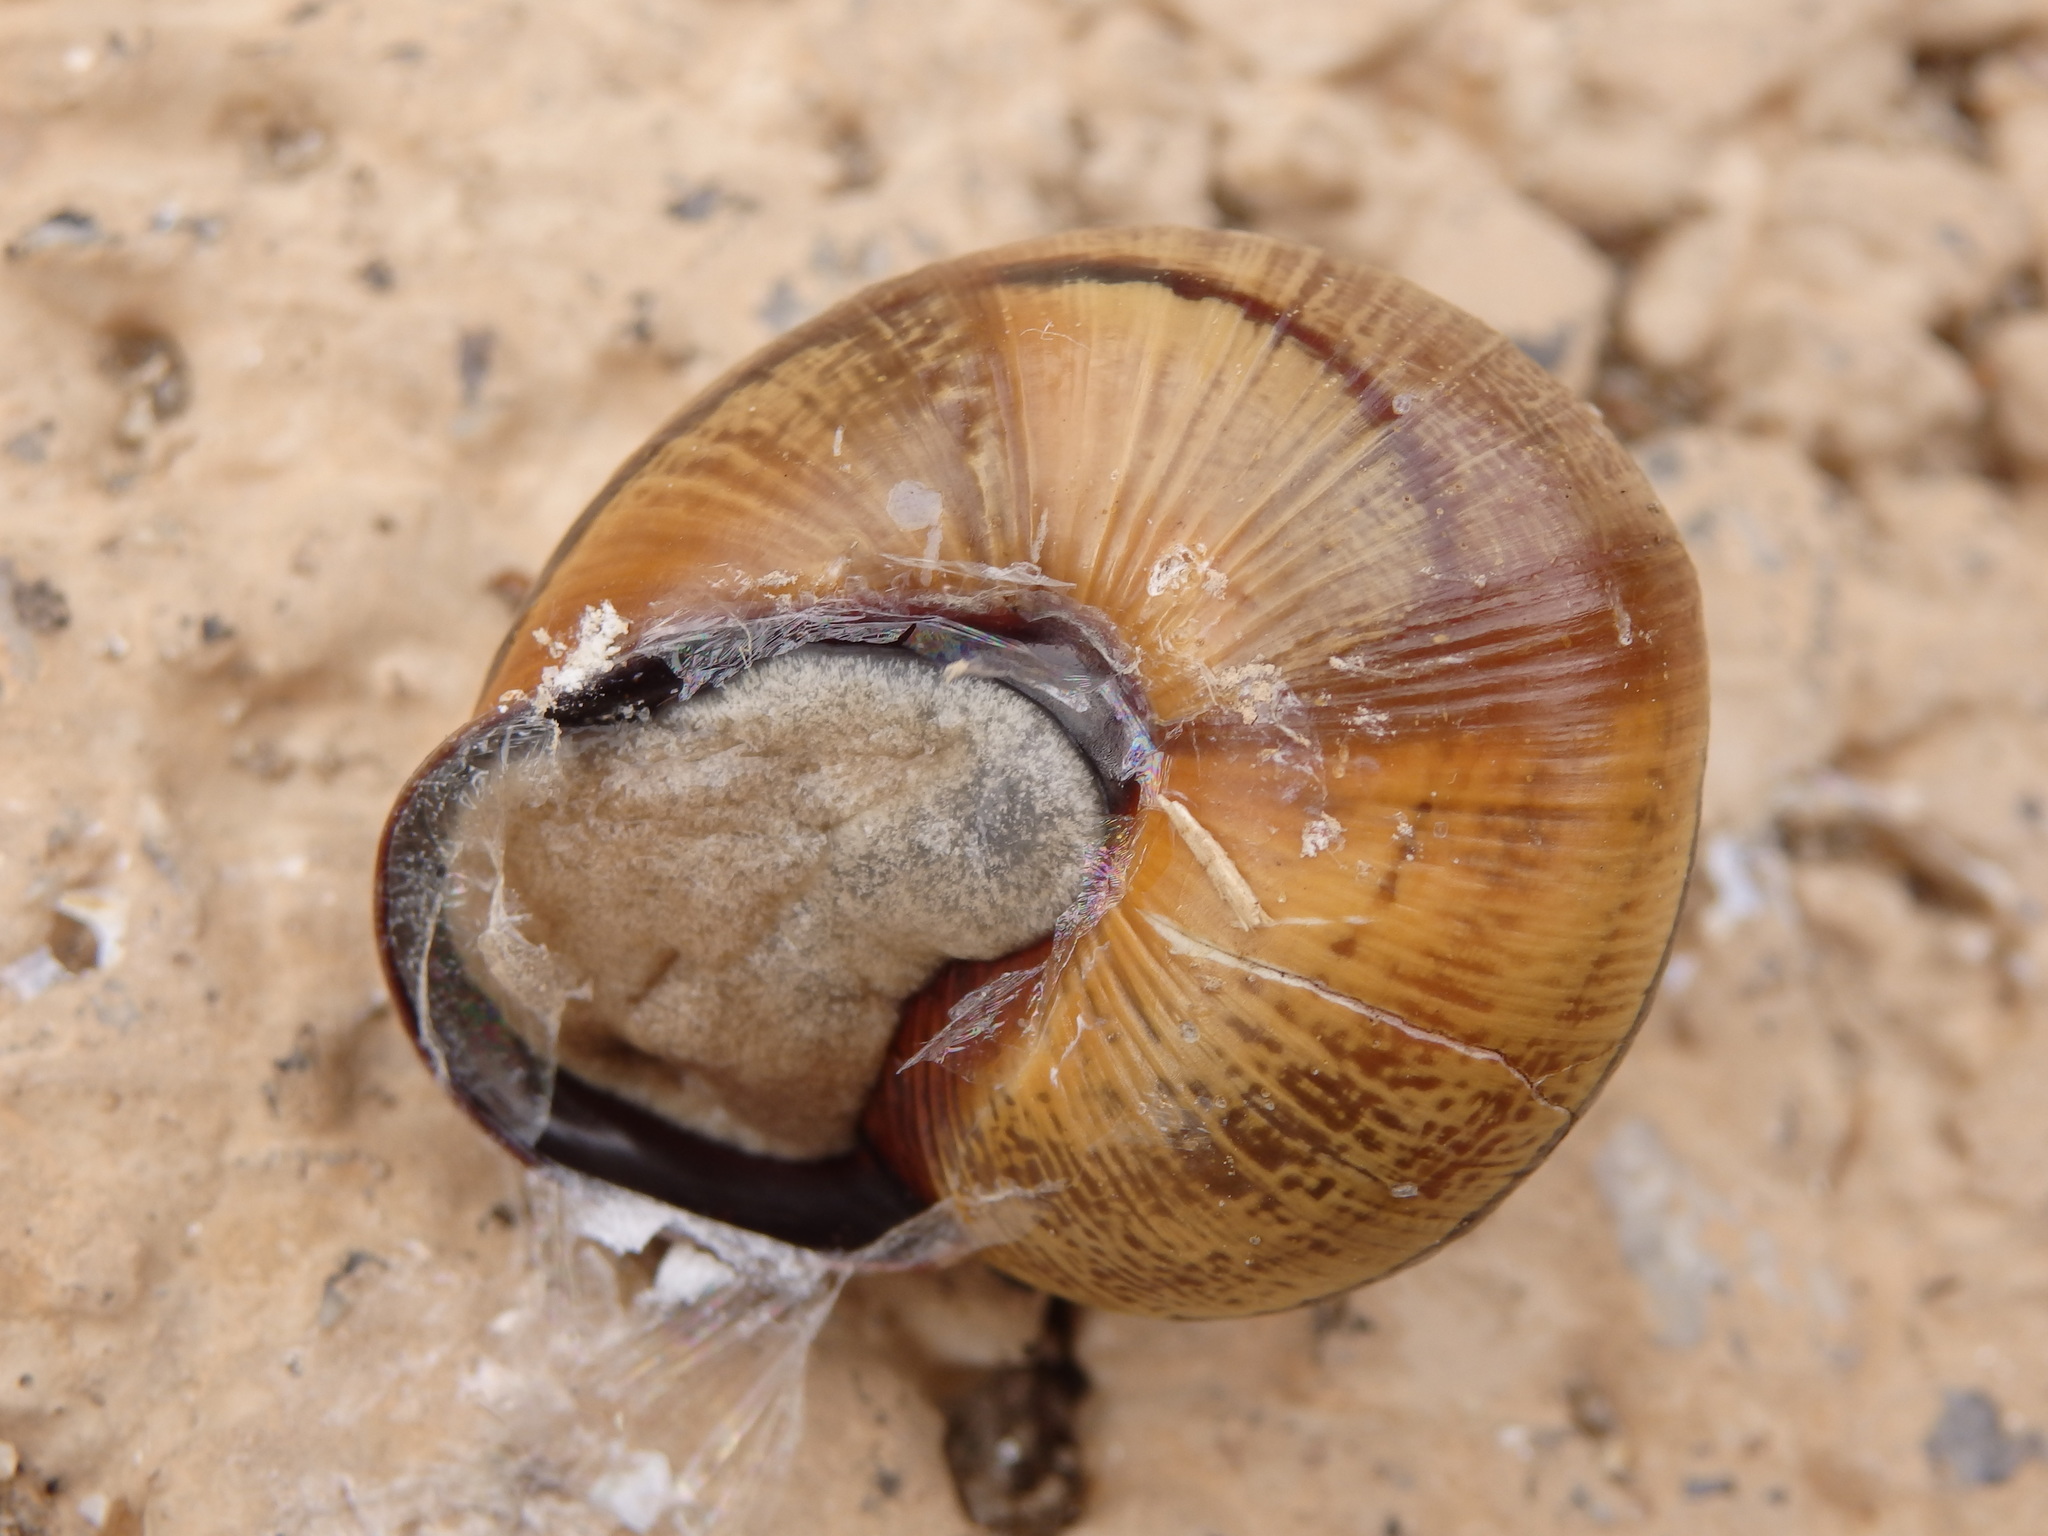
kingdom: Animalia
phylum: Mollusca
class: Gastropoda
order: Stylommatophora
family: Helicidae
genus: Cepaea
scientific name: Cepaea nemoralis
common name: Grovesnail
